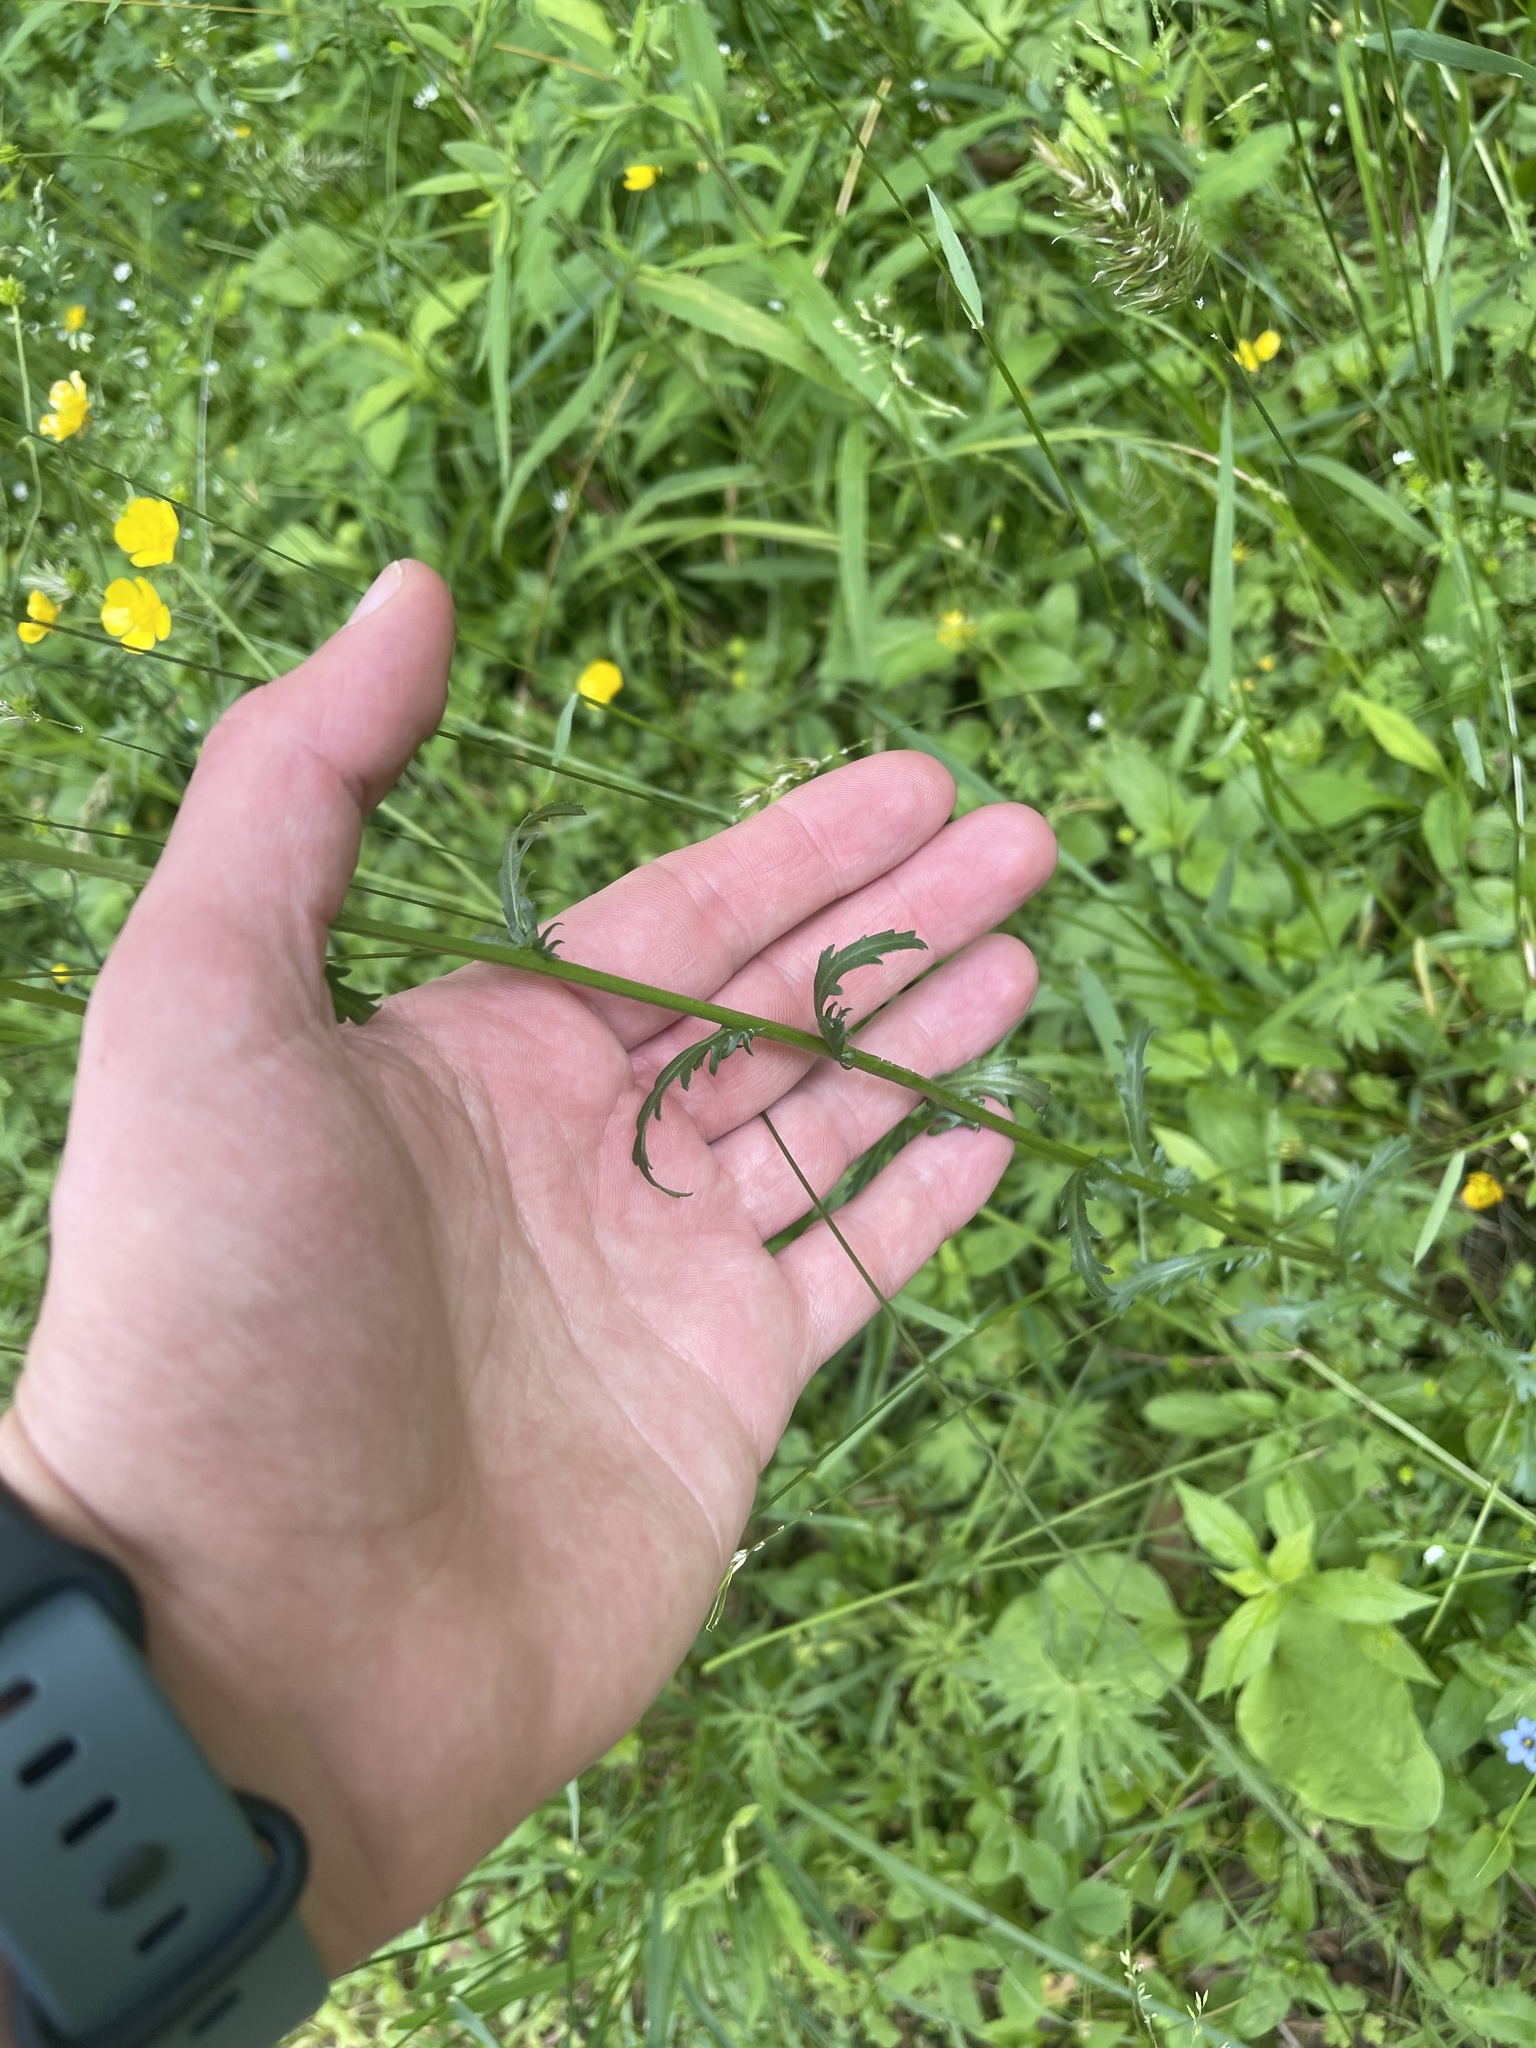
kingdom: Plantae
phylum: Tracheophyta
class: Magnoliopsida
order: Asterales
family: Asteraceae
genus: Leucanthemum
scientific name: Leucanthemum vulgare
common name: Oxeye daisy
